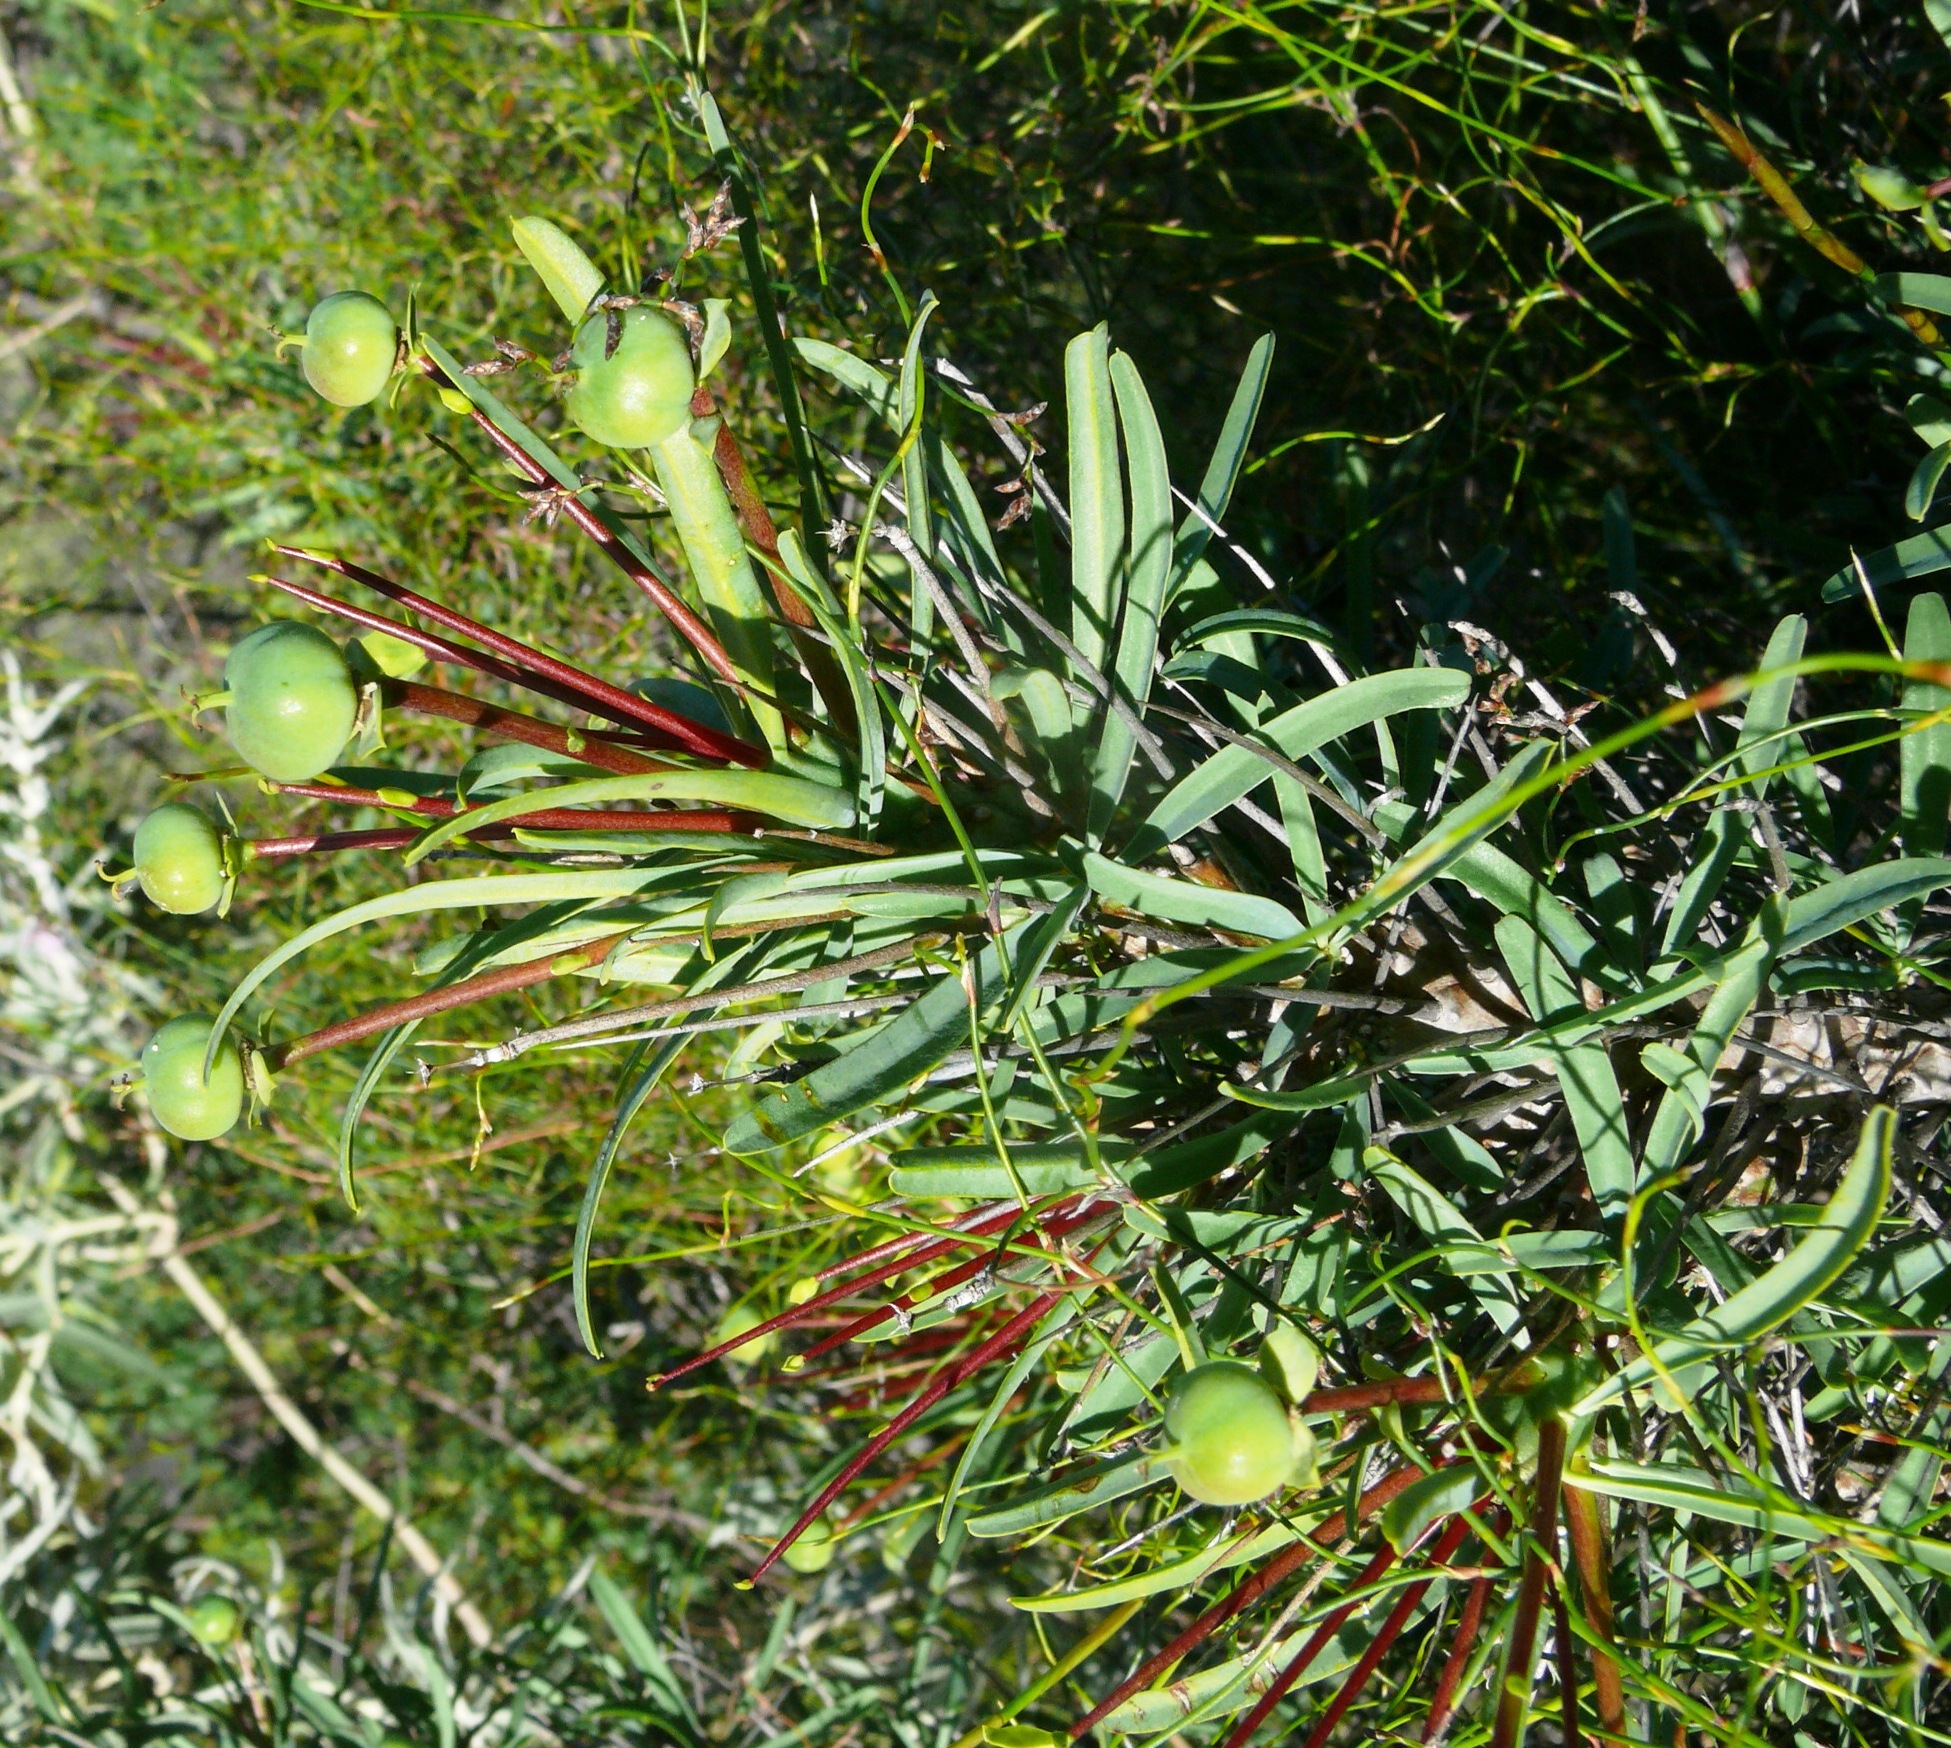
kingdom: Plantae
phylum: Tracheophyta
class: Magnoliopsida
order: Malpighiales
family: Euphorbiaceae
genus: Euphorbia
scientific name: Euphorbia loricata
